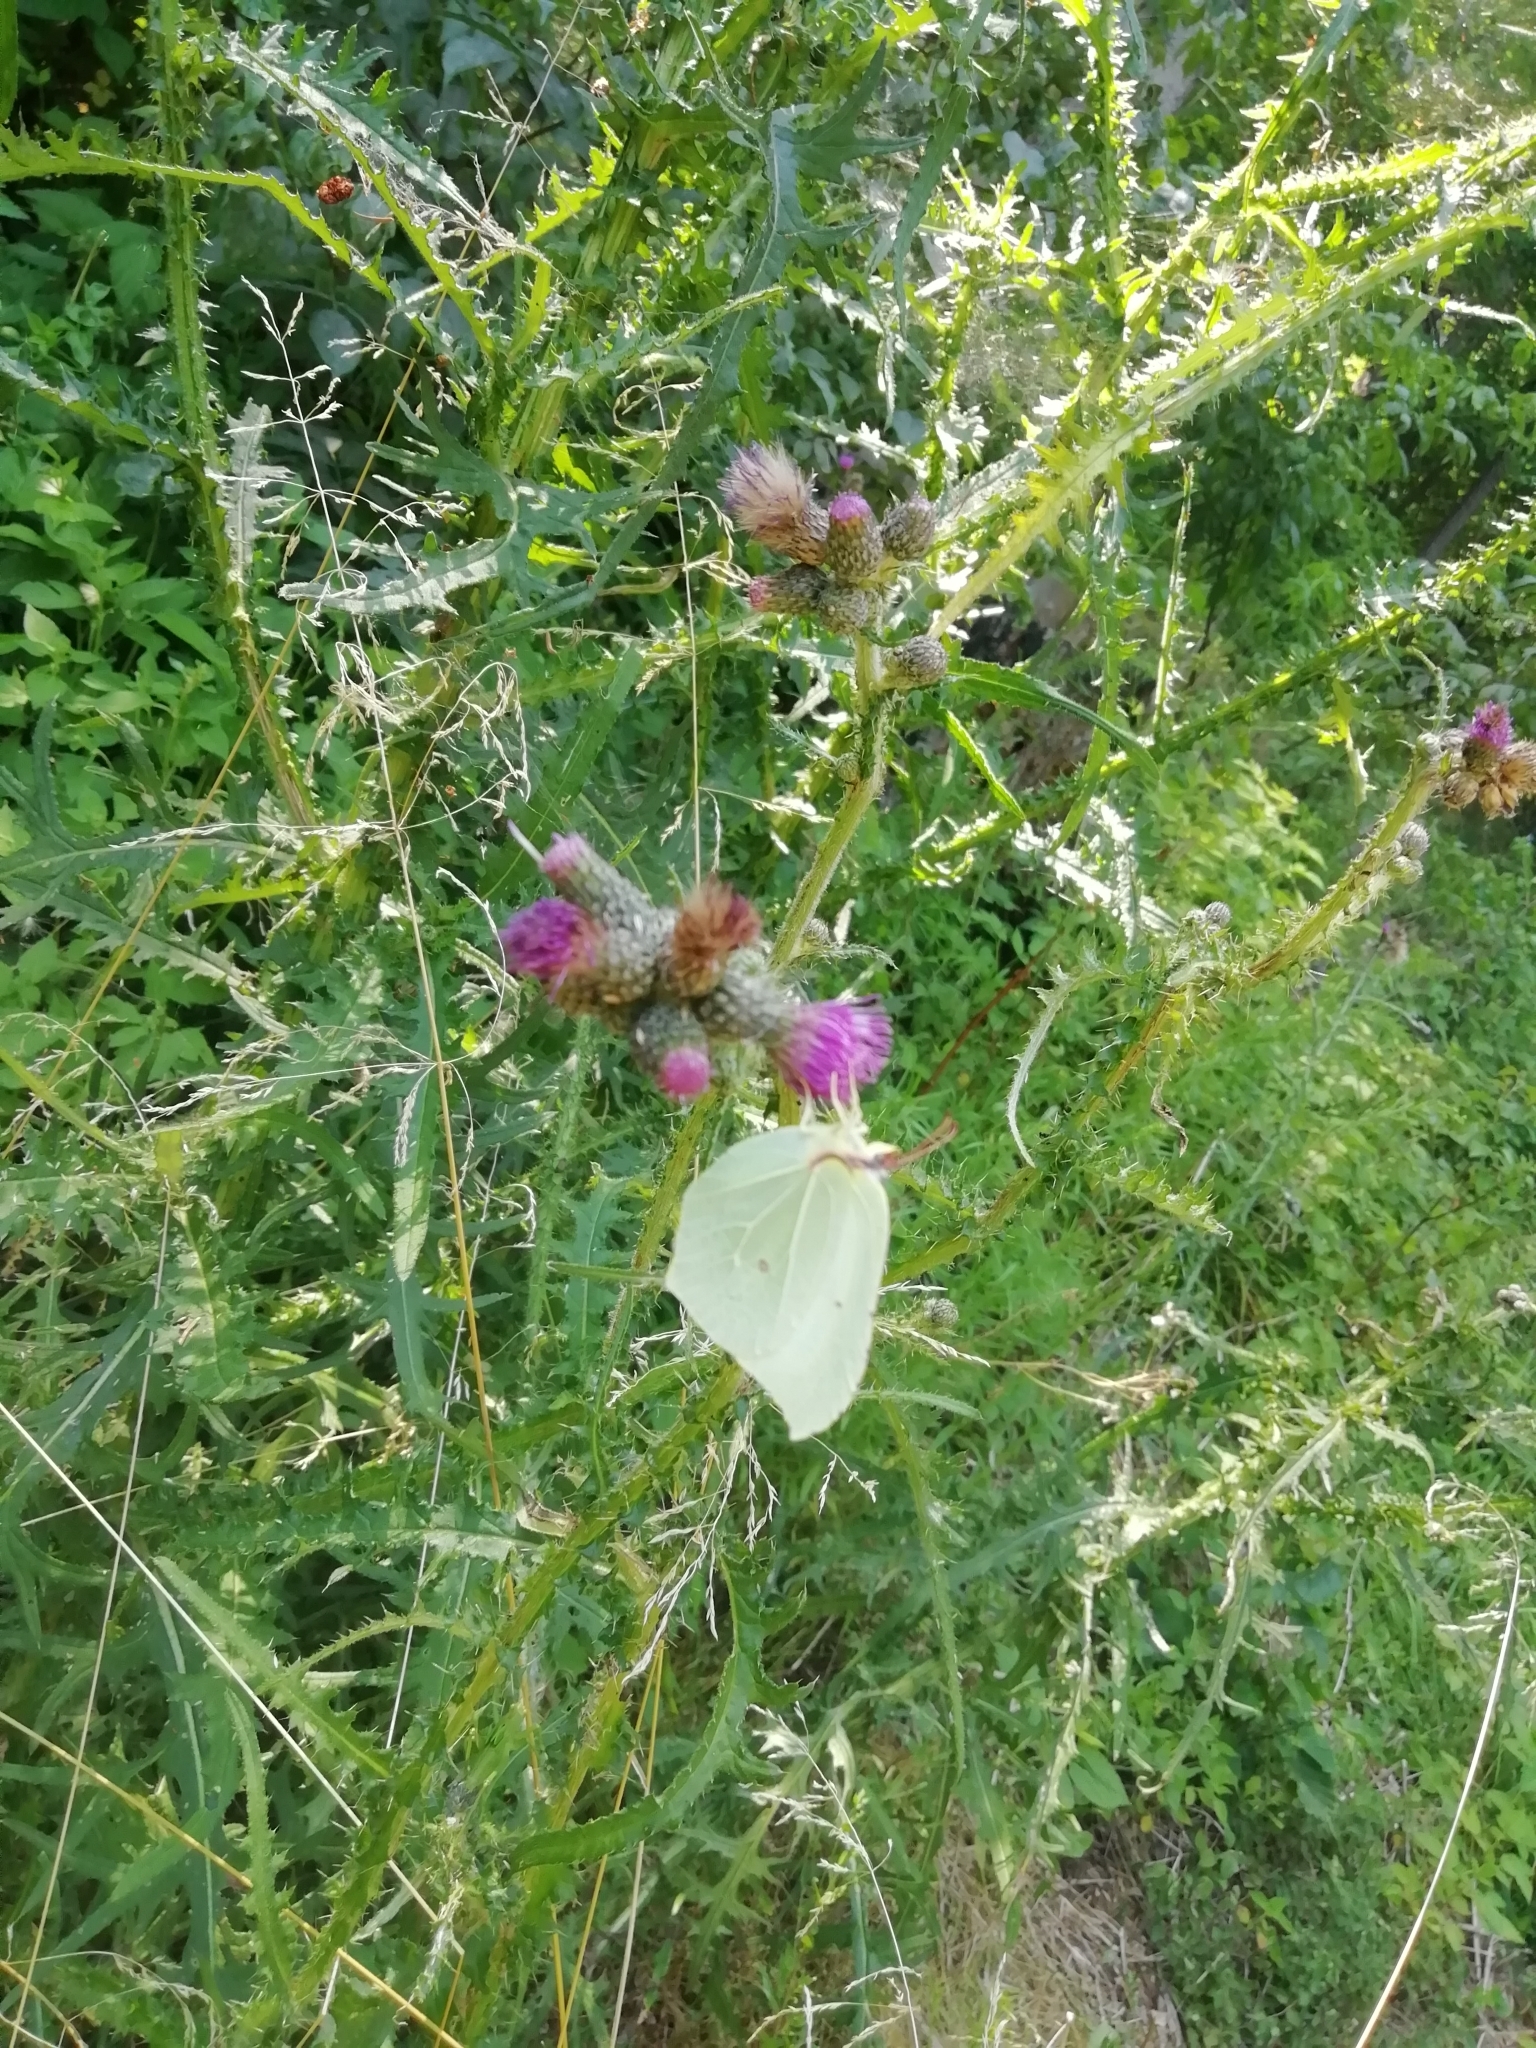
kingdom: Animalia
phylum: Arthropoda
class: Insecta
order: Lepidoptera
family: Pieridae
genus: Gonepteryx
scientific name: Gonepteryx rhamni
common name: Brimstone
